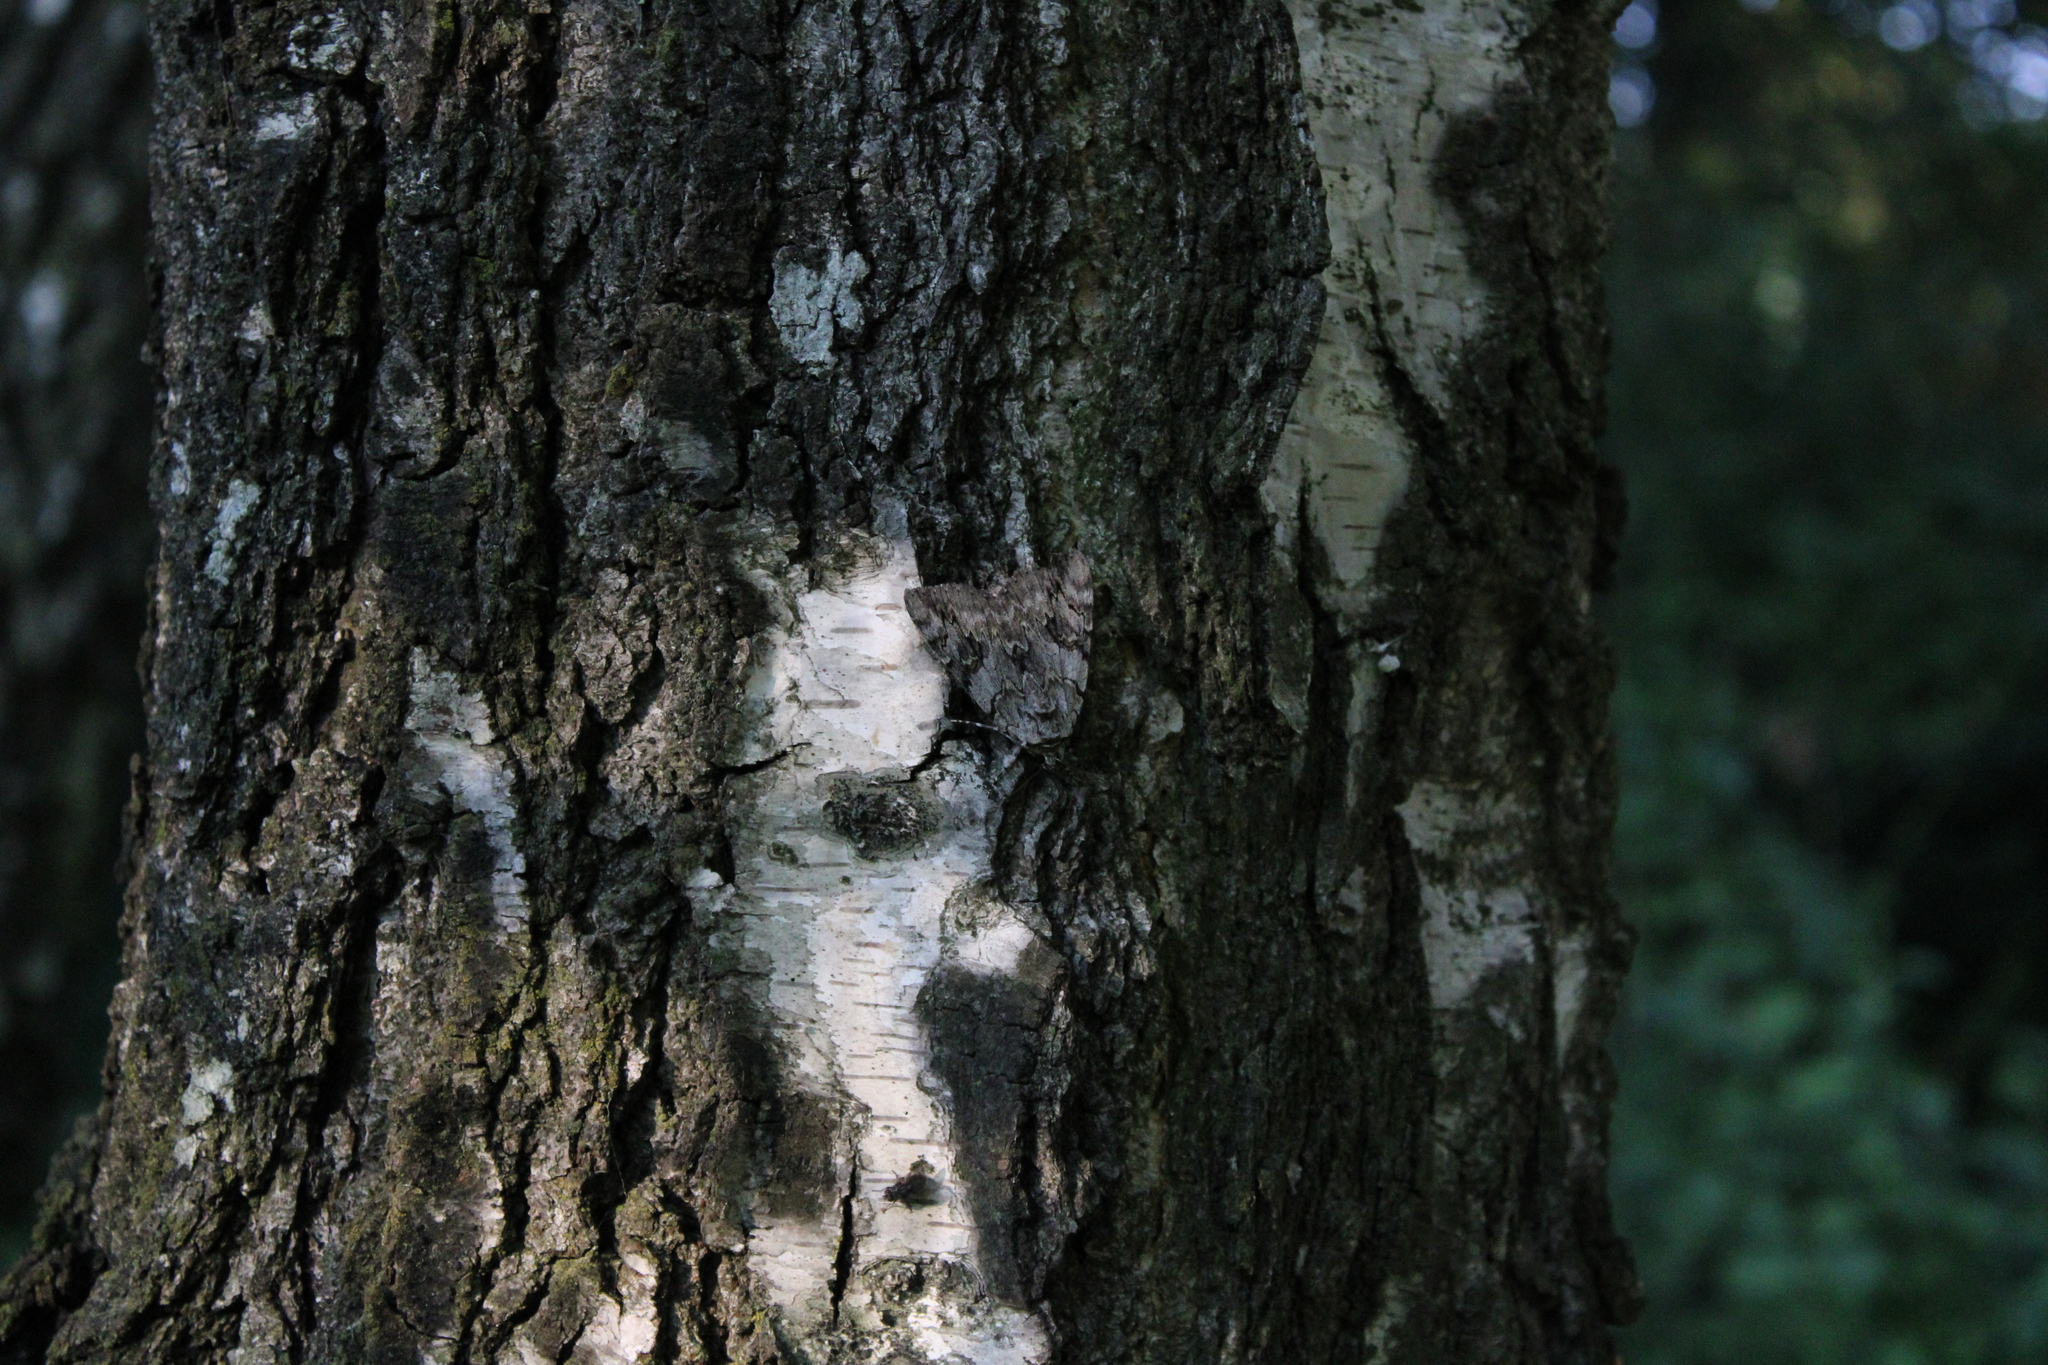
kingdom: Animalia
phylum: Arthropoda
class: Insecta
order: Lepidoptera
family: Erebidae
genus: Catocala
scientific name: Catocala electa
